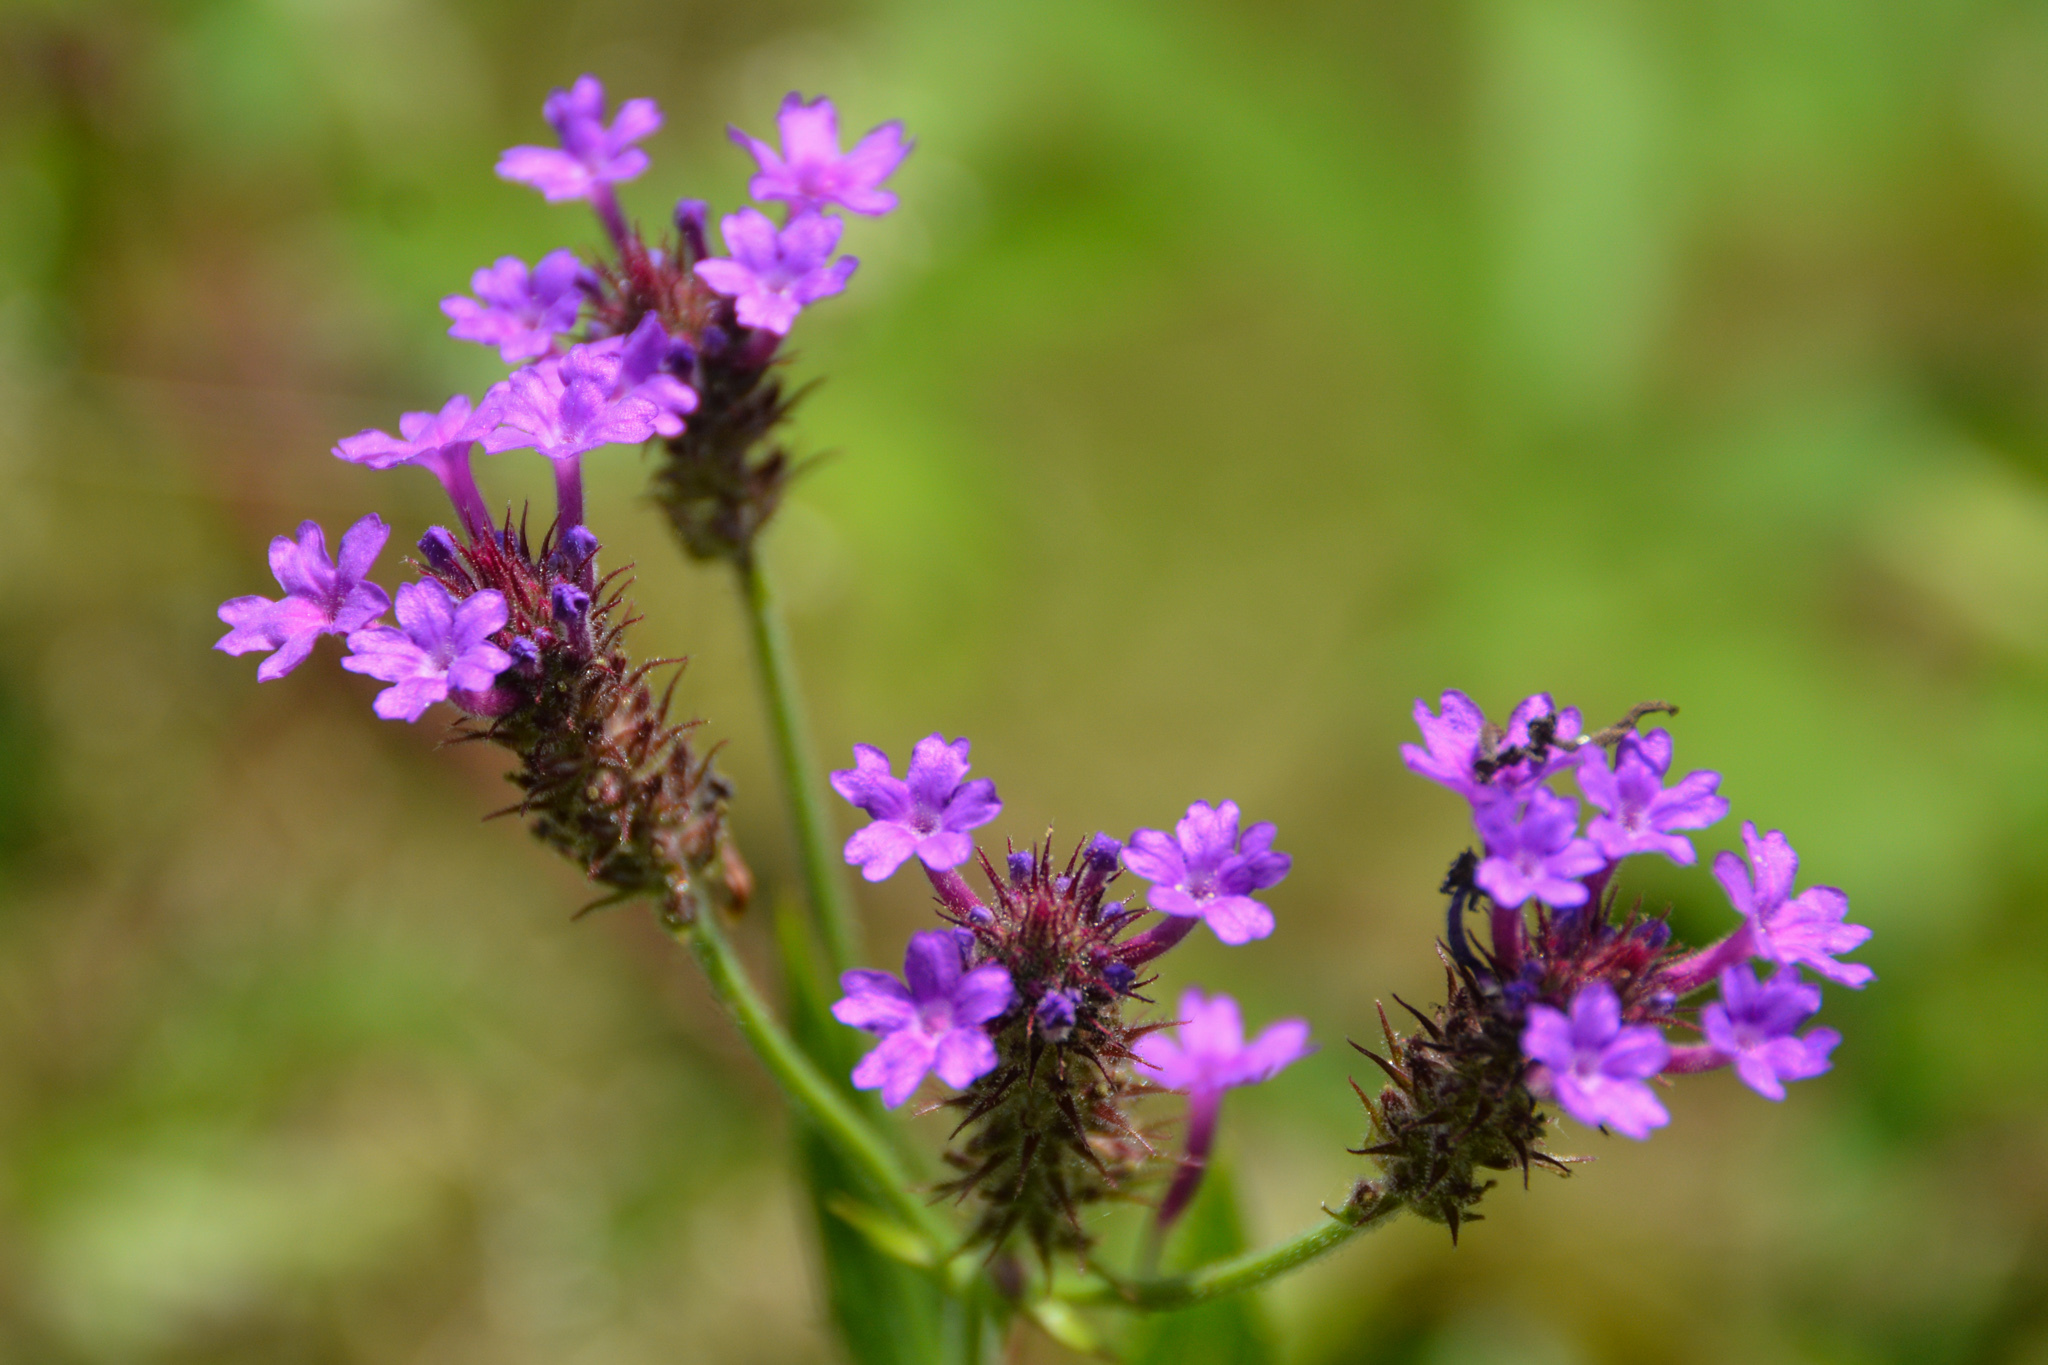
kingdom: Plantae
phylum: Tracheophyta
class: Magnoliopsida
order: Lamiales
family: Verbenaceae
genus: Verbena
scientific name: Verbena rigida
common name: Slender vervain
